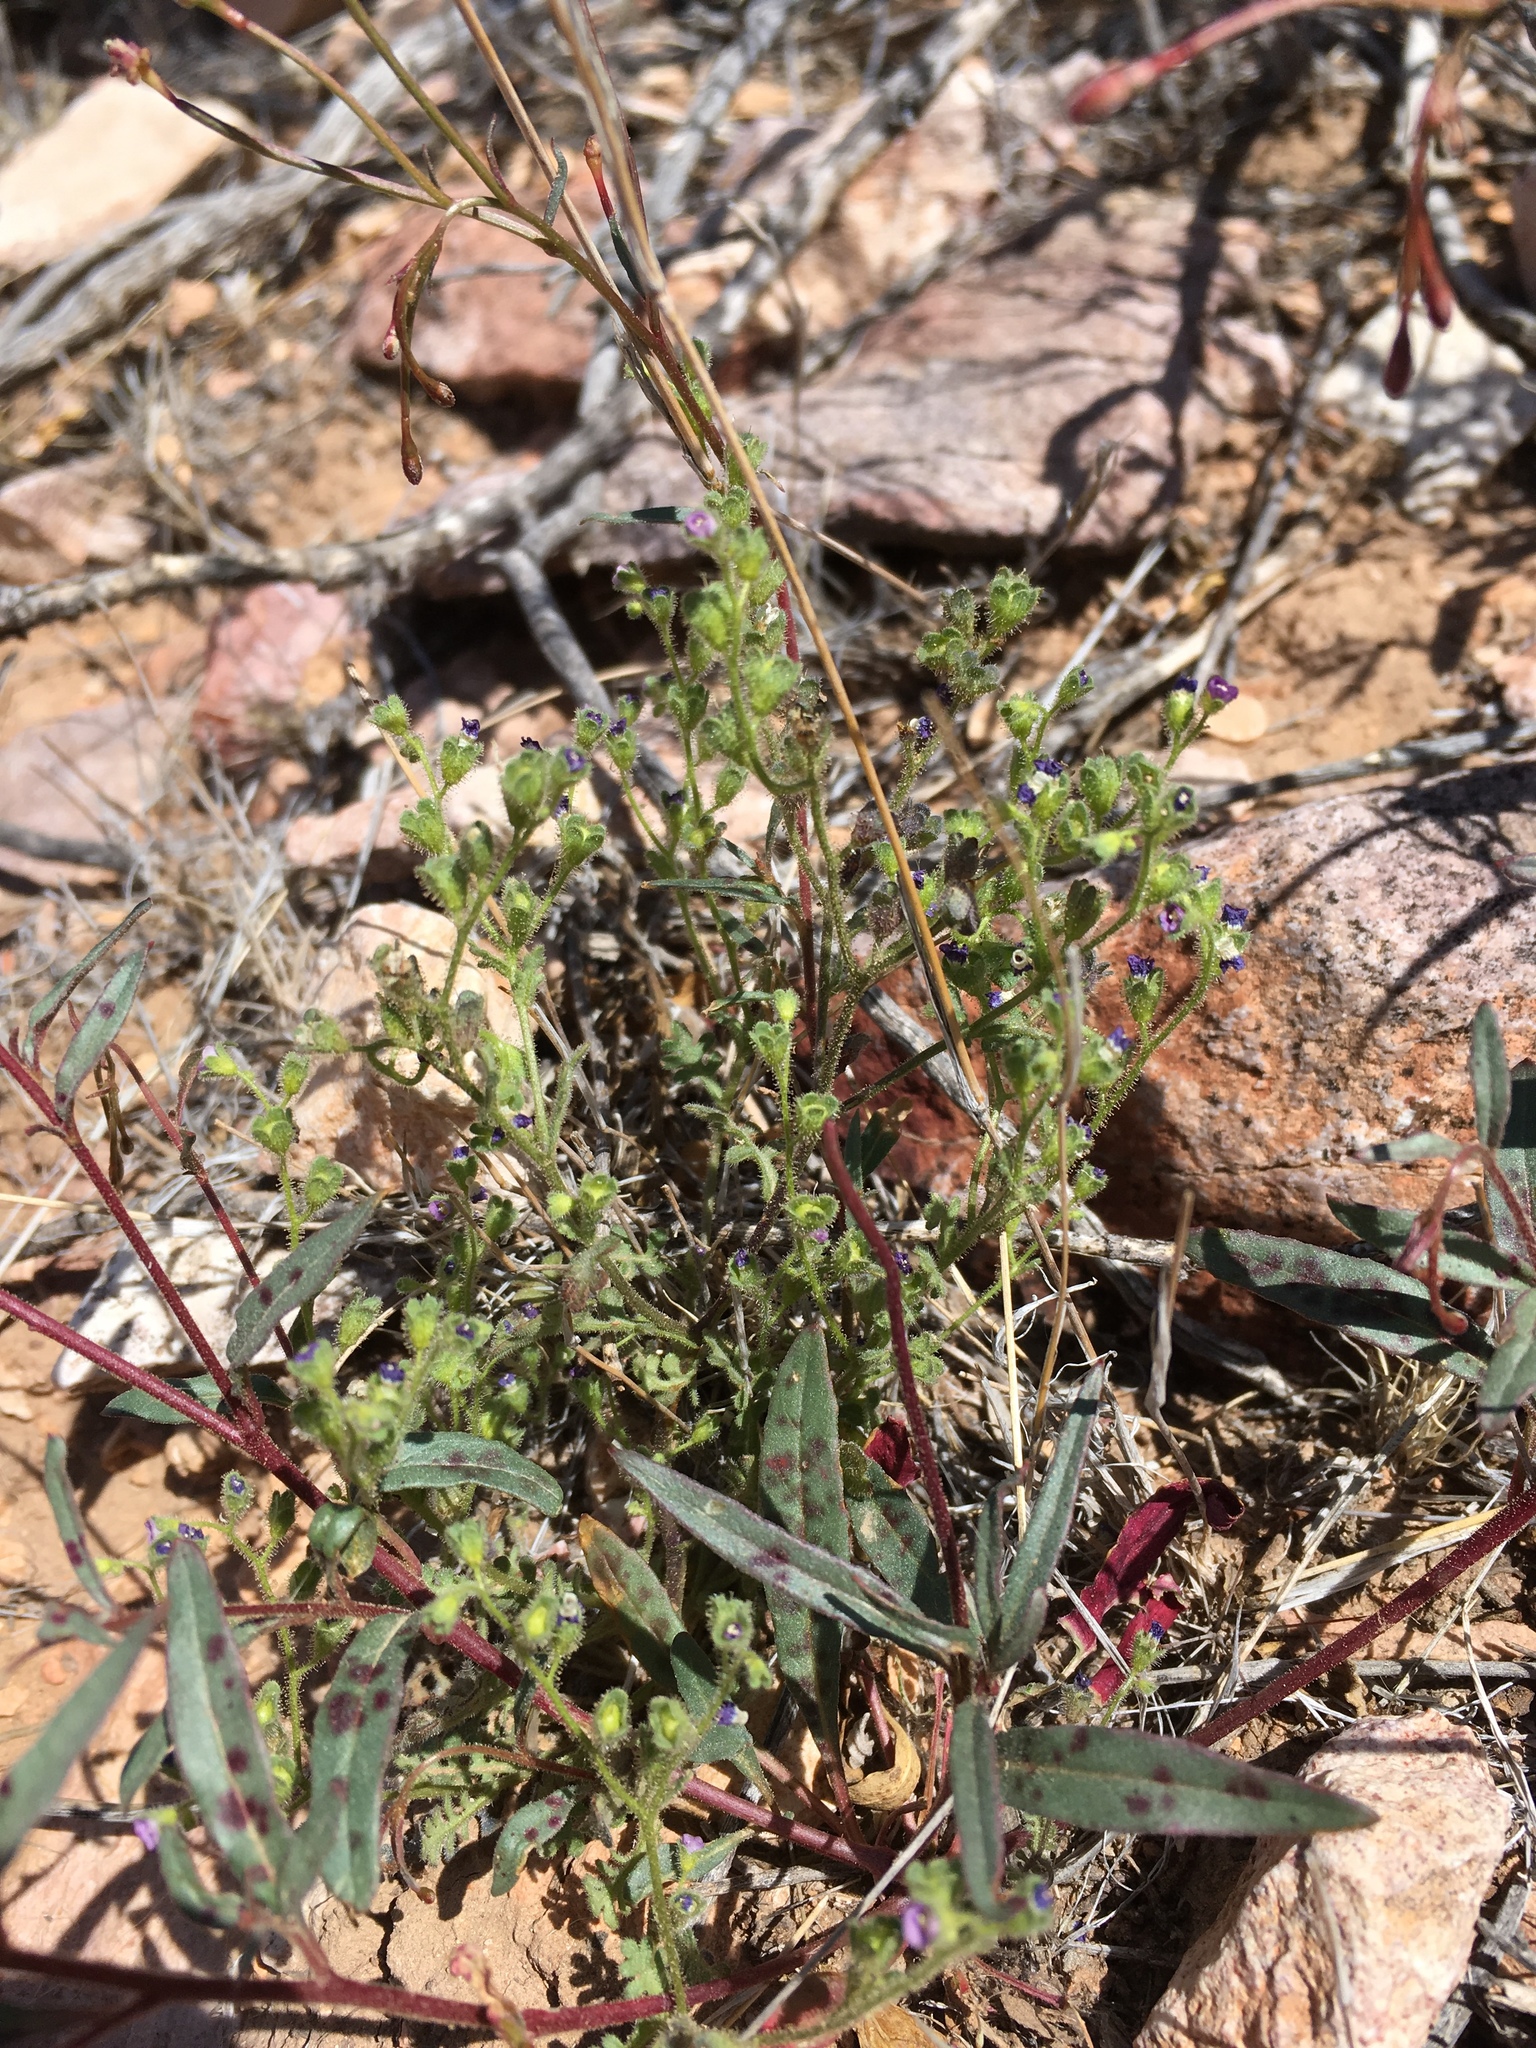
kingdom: Plantae
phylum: Tracheophyta
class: Magnoliopsida
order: Boraginales
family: Hydrophyllaceae
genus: Eucrypta
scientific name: Eucrypta micrantha
